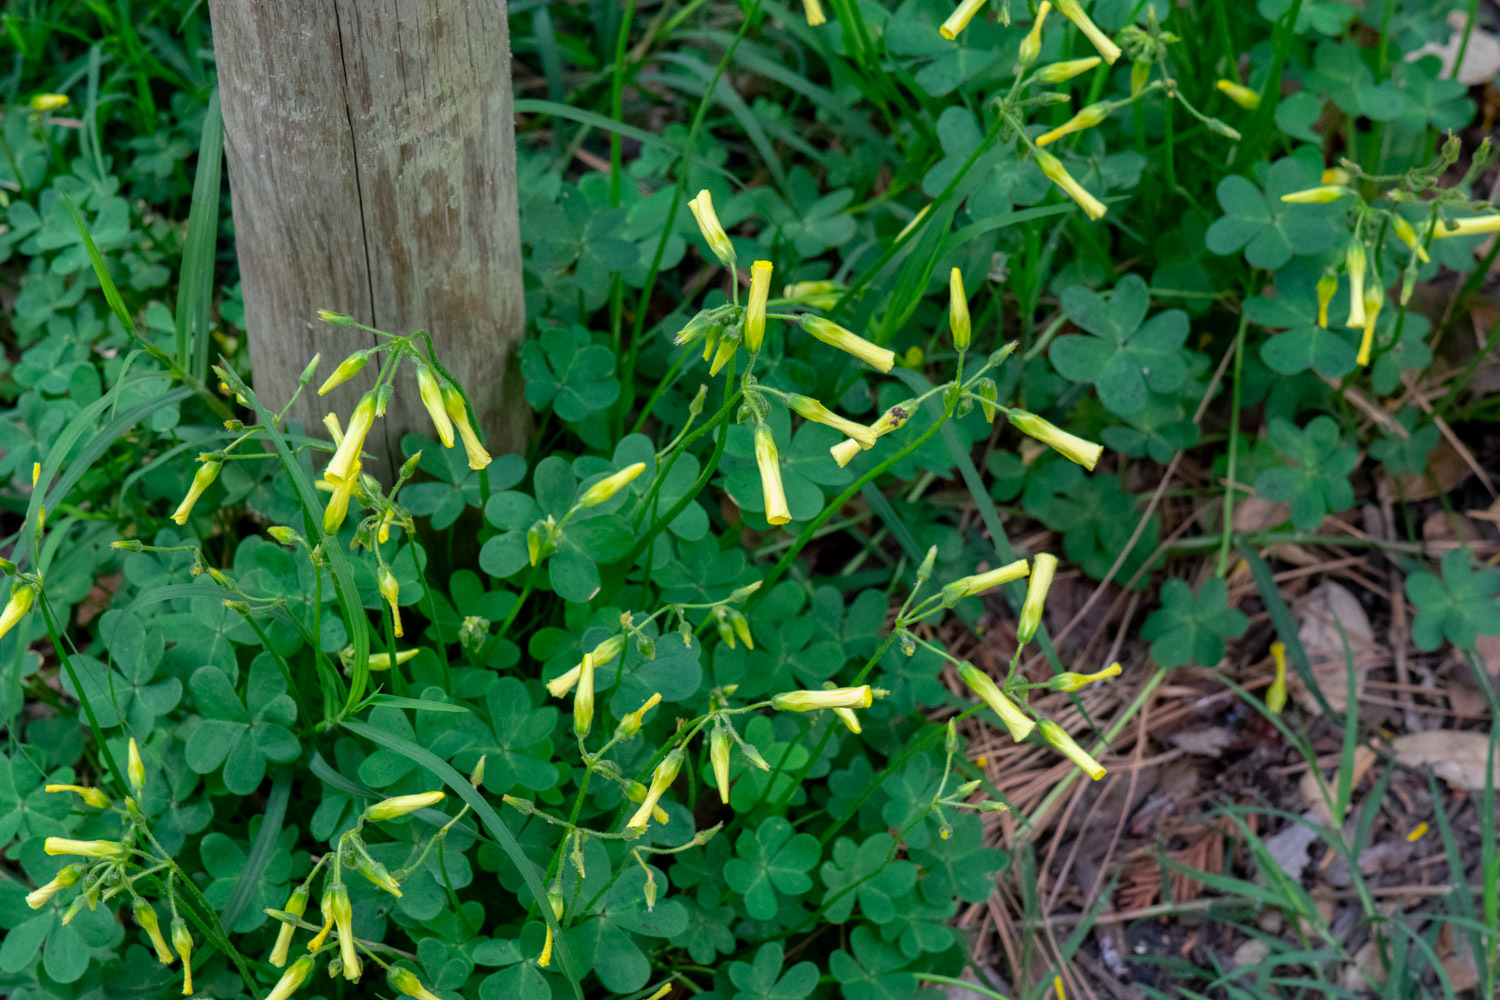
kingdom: Plantae
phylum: Tracheophyta
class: Magnoliopsida
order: Oxalidales
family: Oxalidaceae
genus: Oxalis
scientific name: Oxalis pes-caprae
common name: Bermuda-buttercup
